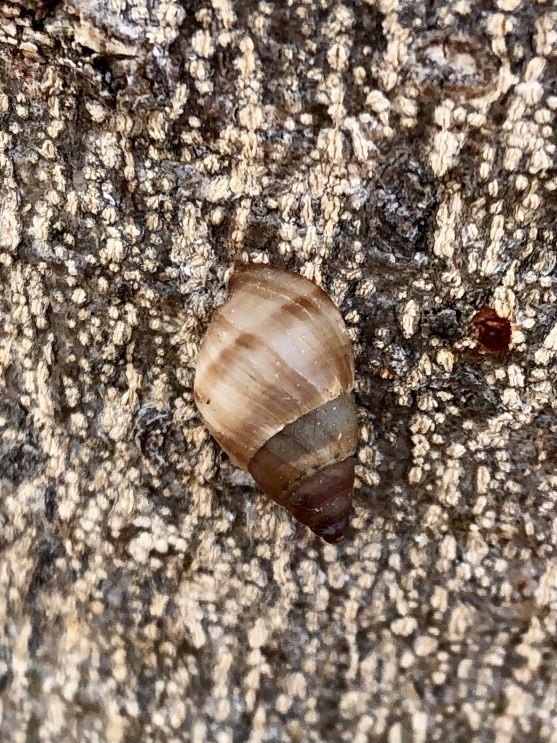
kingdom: Animalia
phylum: Mollusca
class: Gastropoda
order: Stylommatophora
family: Bulimulidae
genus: Bulimulus
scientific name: Bulimulus guadalupensis
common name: West indian bulimulus
